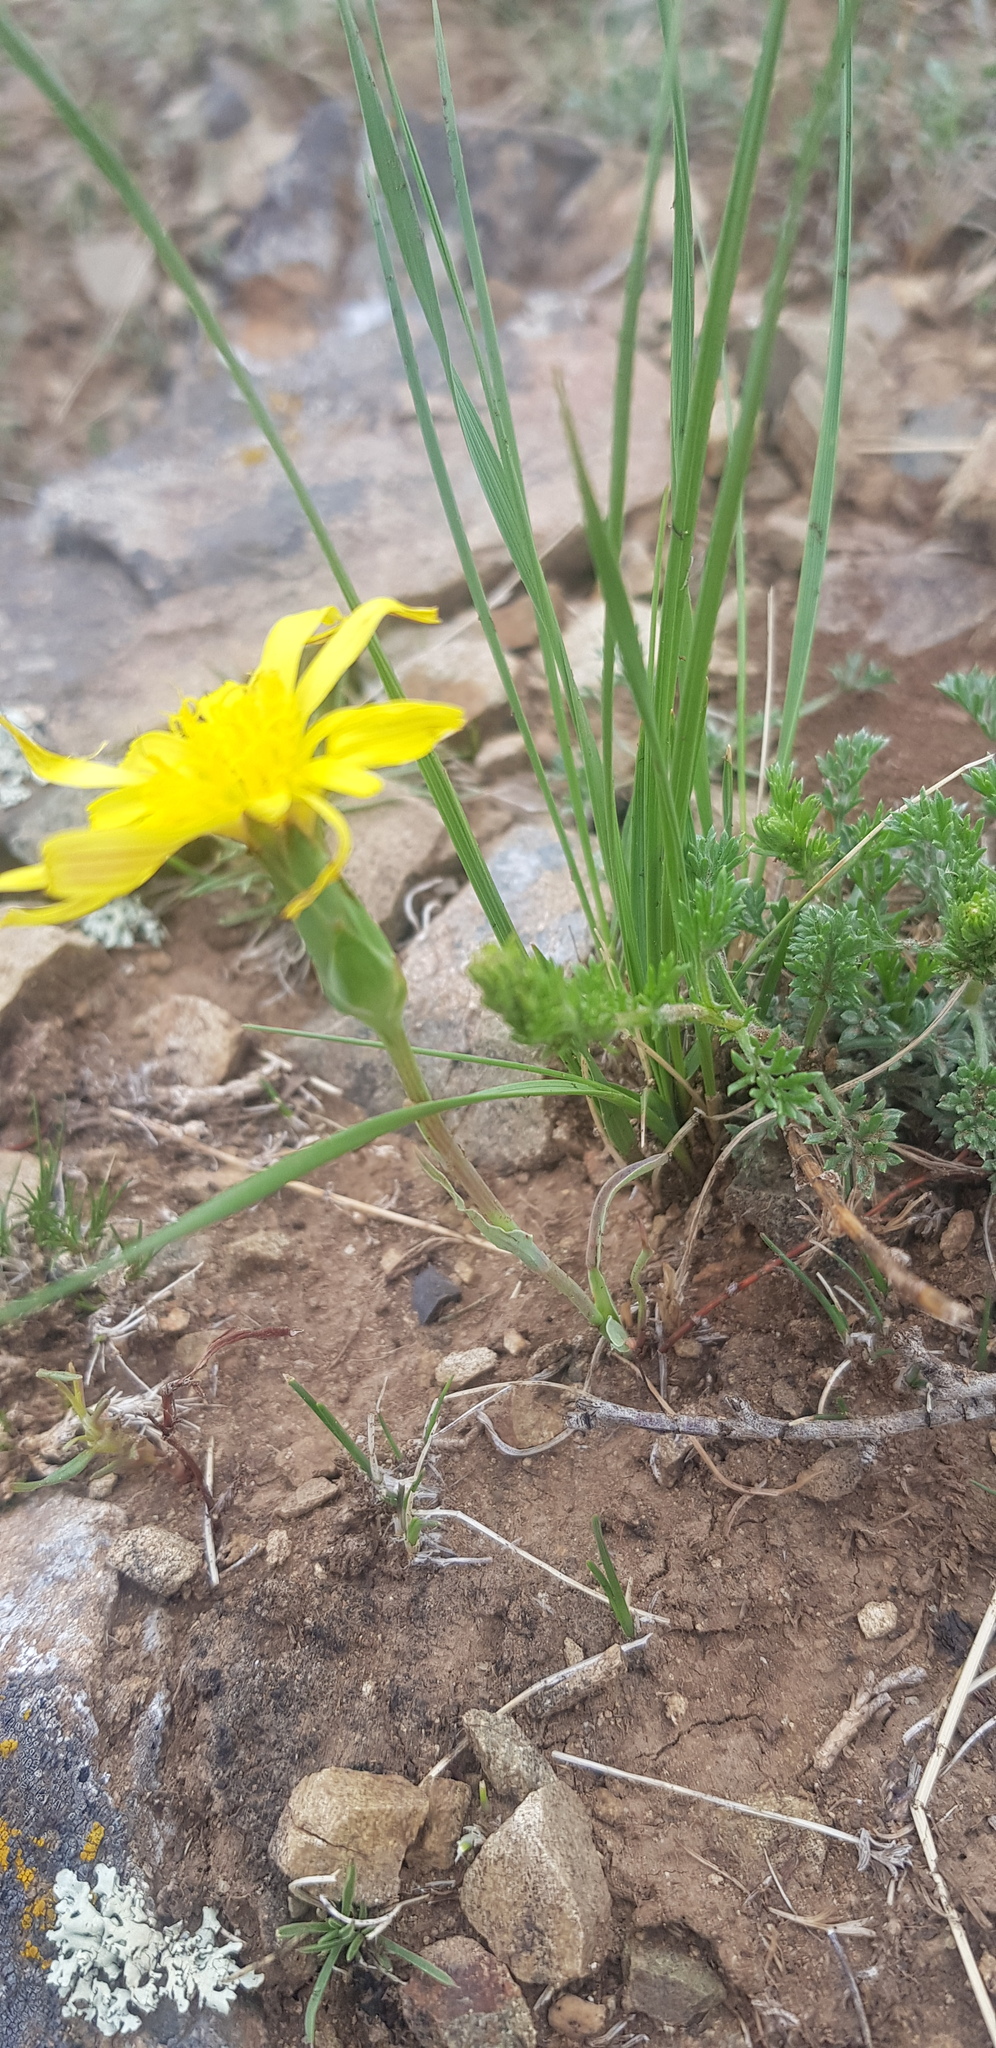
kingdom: Plantae
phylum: Tracheophyta
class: Magnoliopsida
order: Asterales
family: Asteraceae
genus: Takhtajaniantha
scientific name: Takhtajaniantha austriaca
